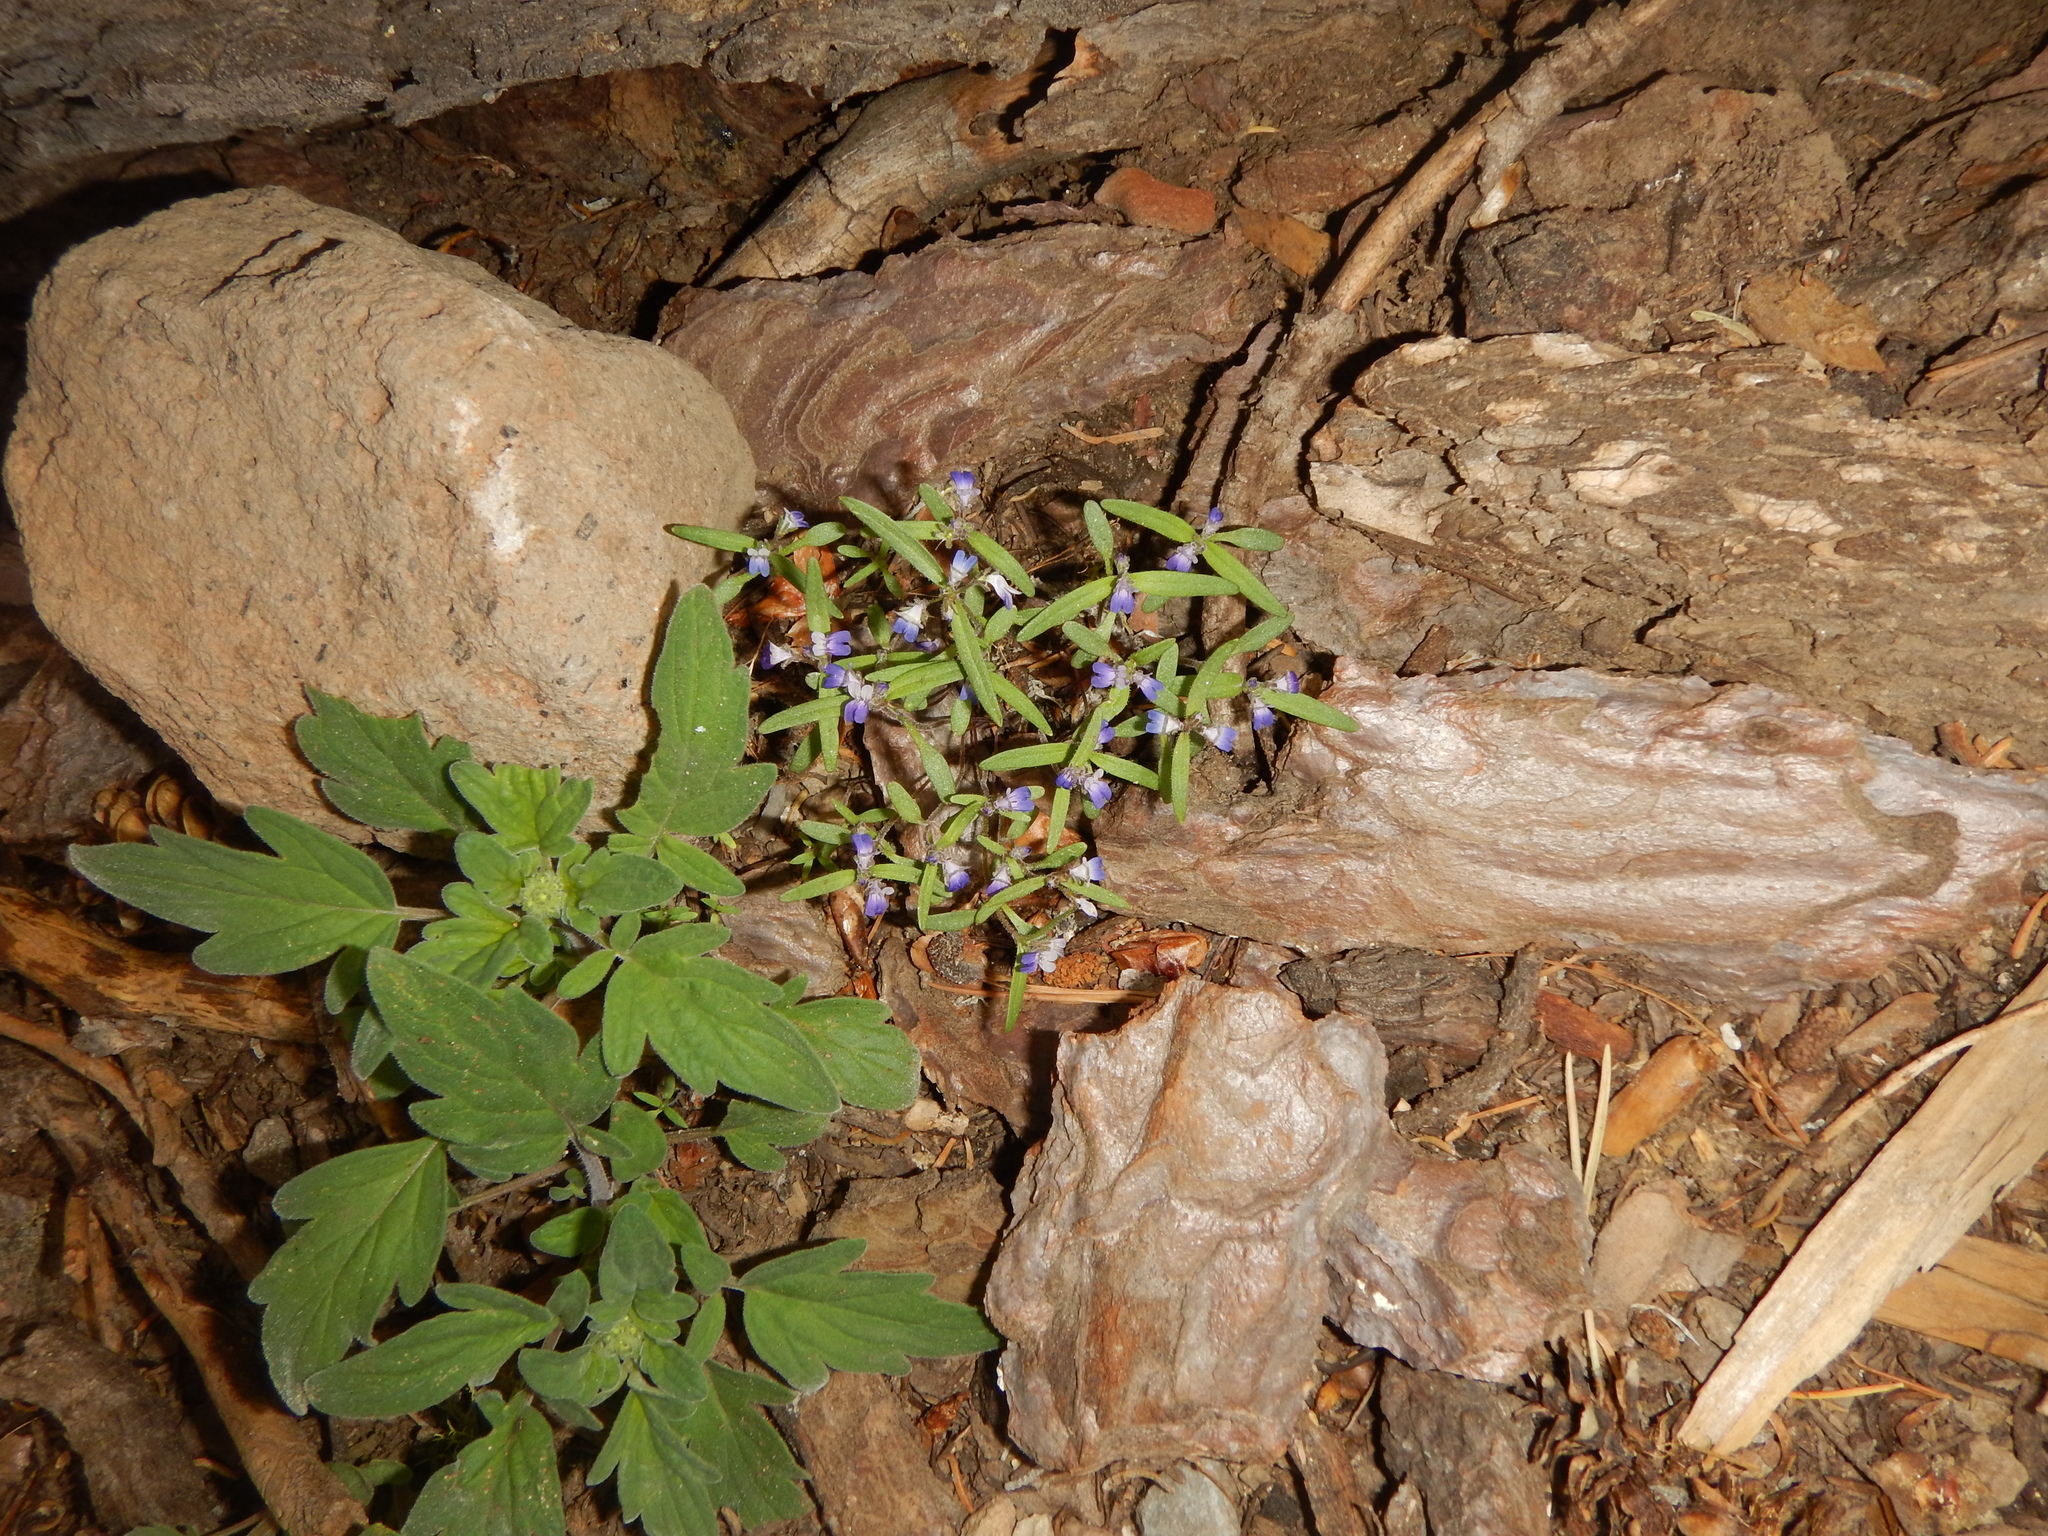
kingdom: Plantae
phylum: Tracheophyta
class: Magnoliopsida
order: Lamiales
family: Plantaginaceae
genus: Collinsia
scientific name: Collinsia torreyi
